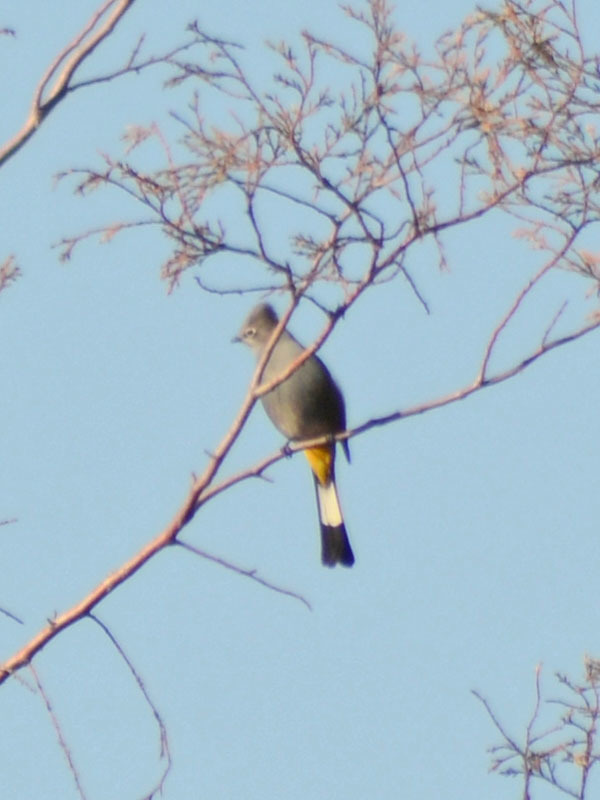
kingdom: Animalia
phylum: Chordata
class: Aves
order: Passeriformes
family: Ptilogonatidae
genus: Ptilogonys
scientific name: Ptilogonys cinereus
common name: Gray silky-flycatcher
